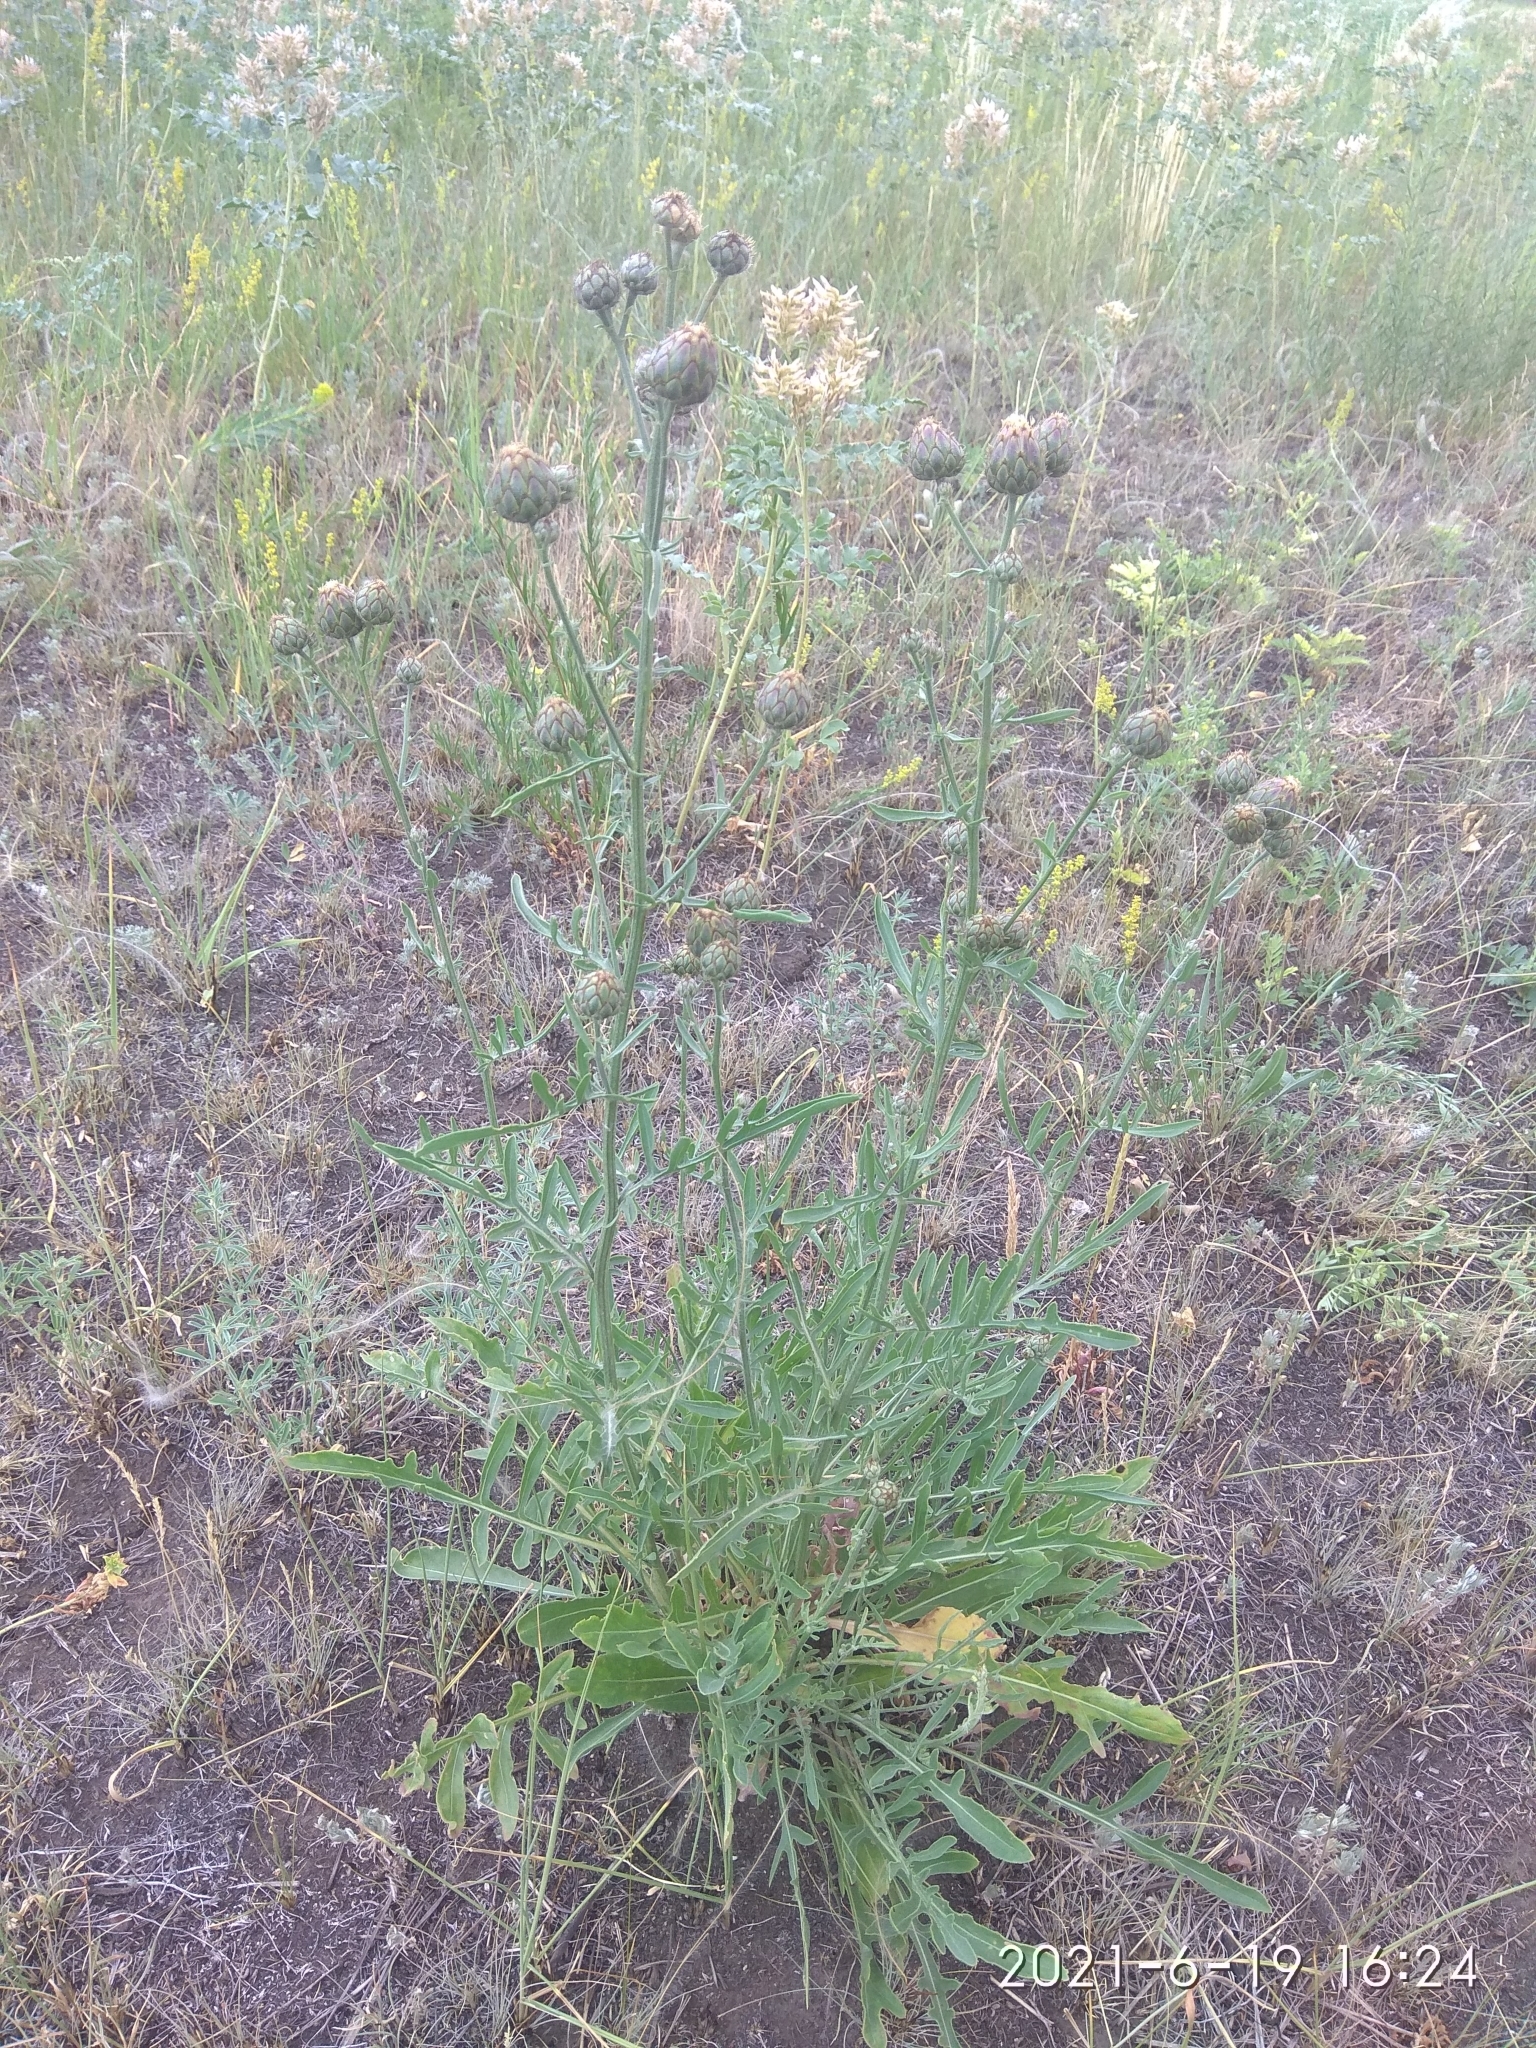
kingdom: Plantae
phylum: Tracheophyta
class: Magnoliopsida
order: Asterales
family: Asteraceae
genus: Centaurea
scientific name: Centaurea scabiosa
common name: Greater knapweed
